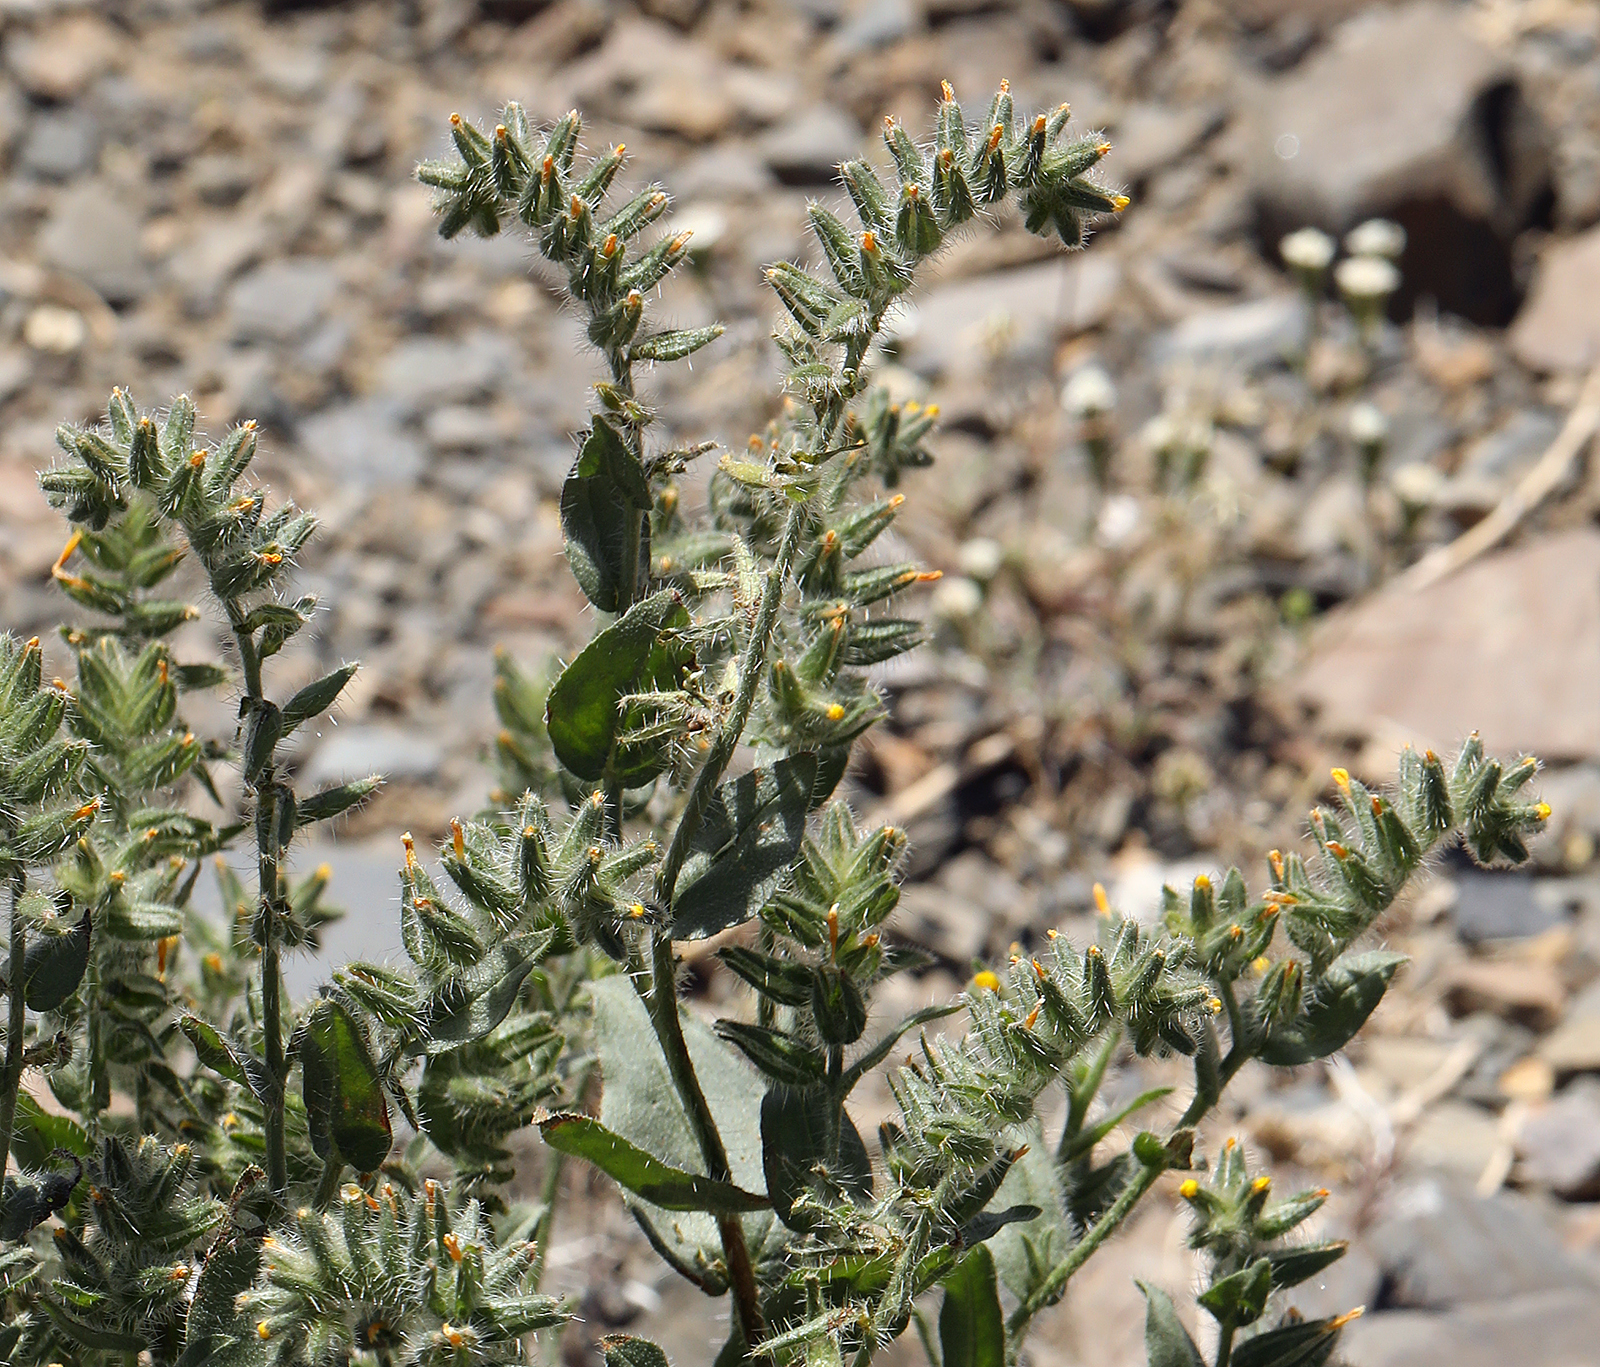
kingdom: Plantae
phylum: Tracheophyta
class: Magnoliopsida
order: Boraginales
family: Boraginaceae
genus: Amsinckia
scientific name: Amsinckia tessellata
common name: Tessellate fiddleneck
